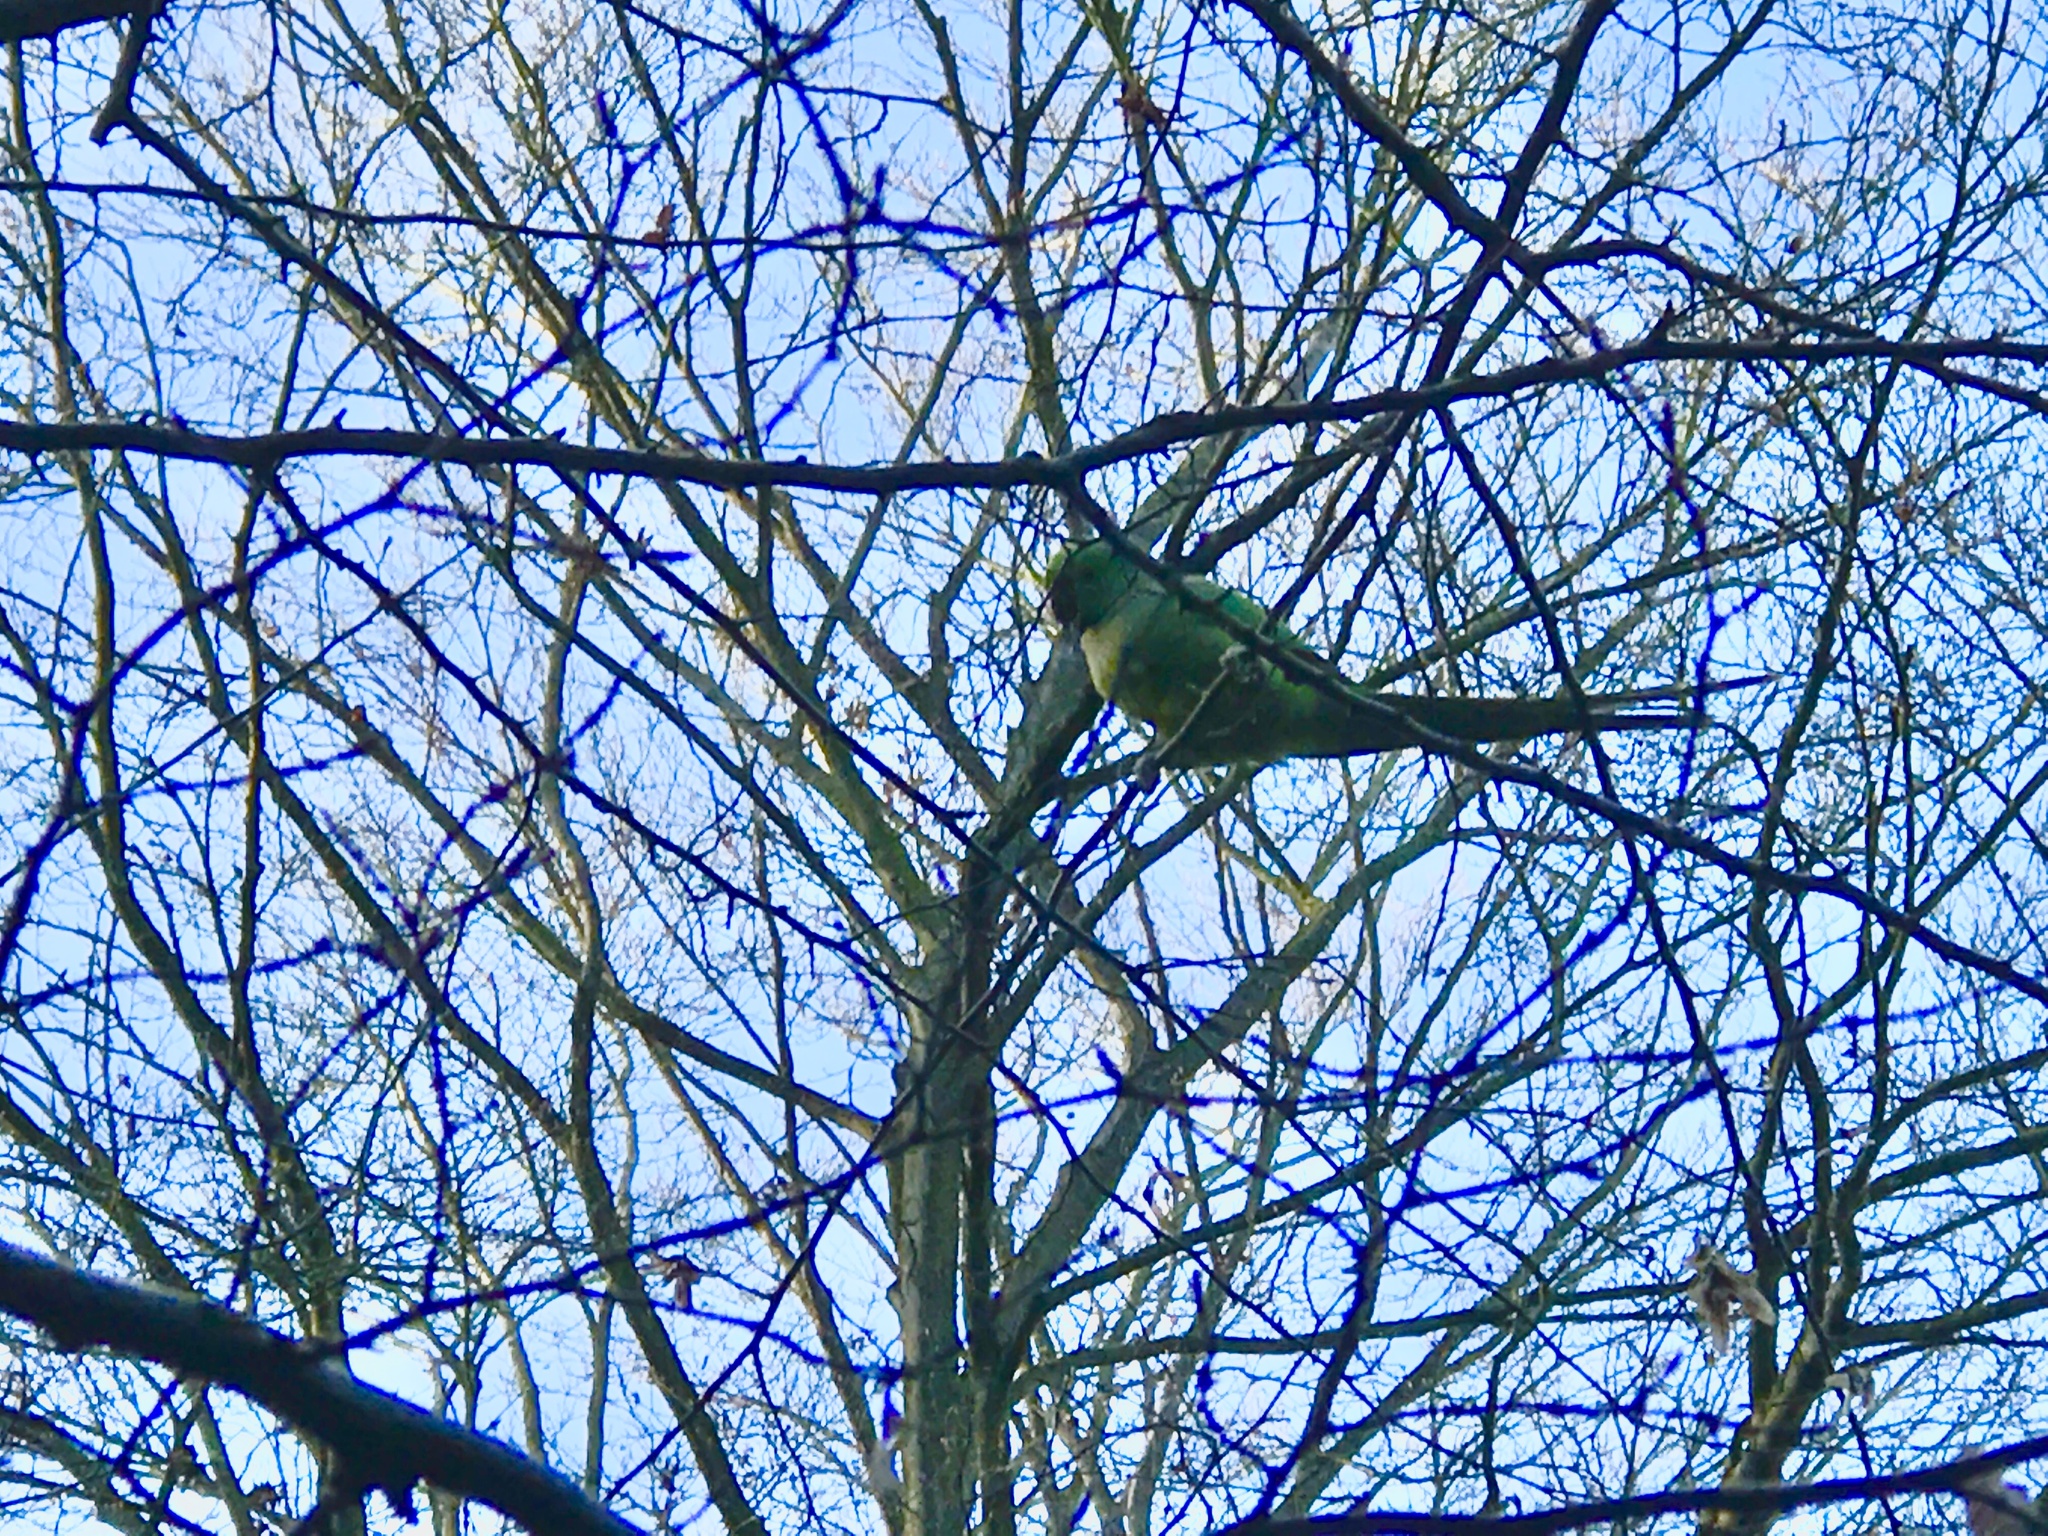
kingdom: Animalia
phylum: Chordata
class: Aves
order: Psittaciformes
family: Psittacidae
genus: Psittacula
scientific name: Psittacula krameri
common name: Rose-ringed parakeet
